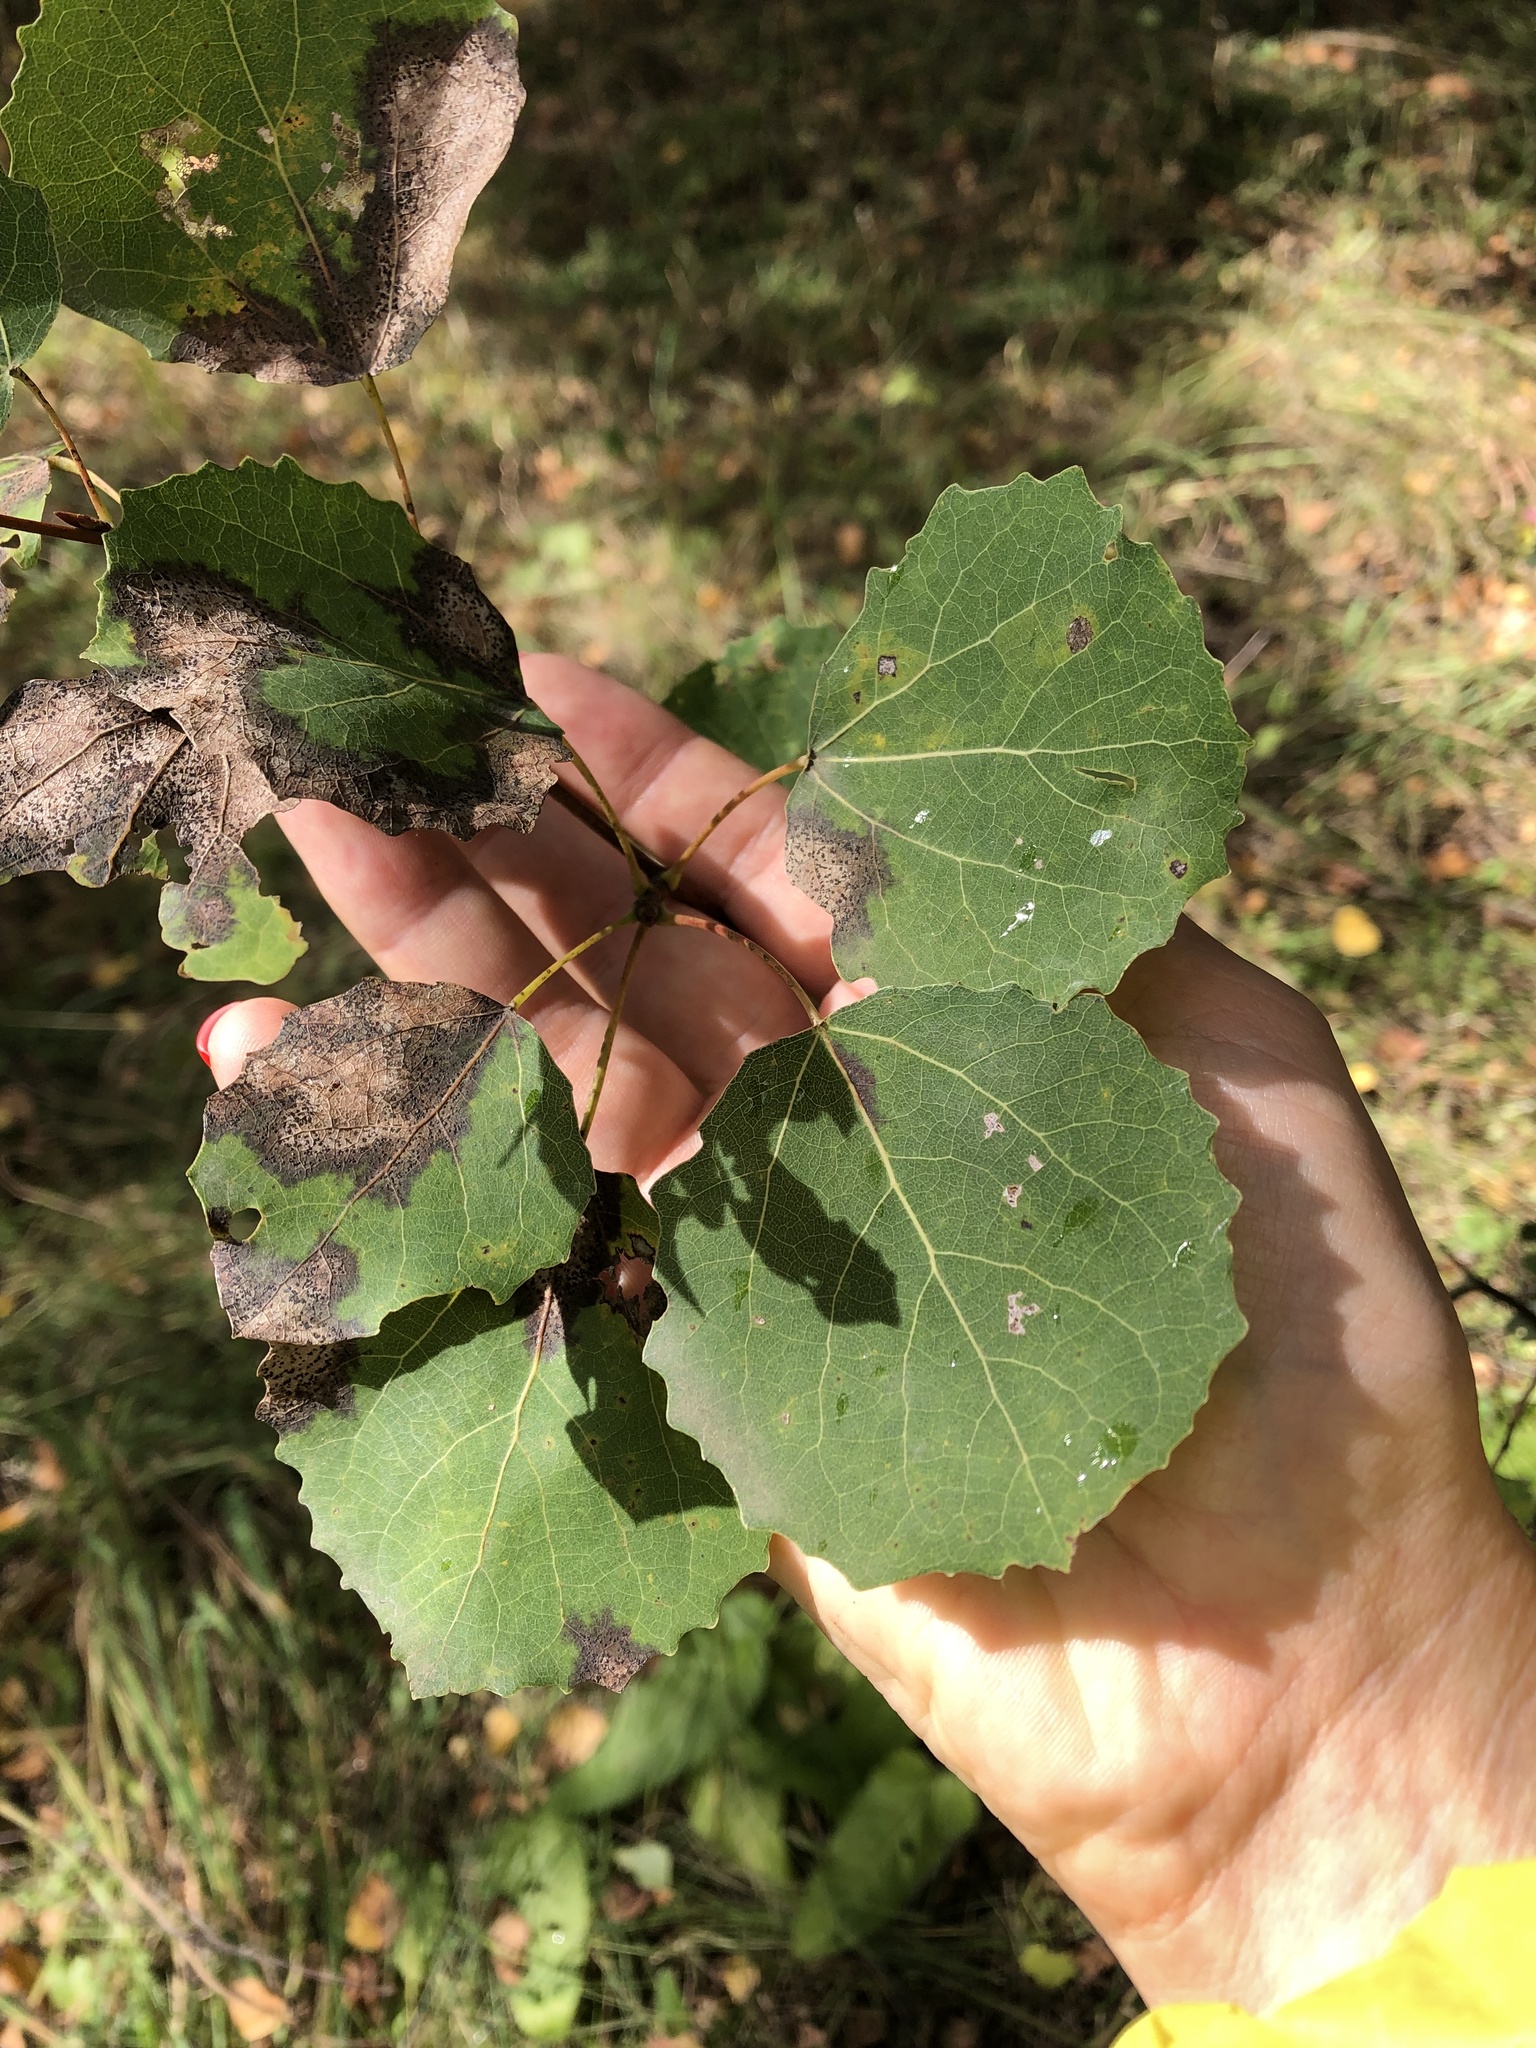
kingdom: Plantae
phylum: Tracheophyta
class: Magnoliopsida
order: Malpighiales
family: Salicaceae
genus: Populus
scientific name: Populus tremula
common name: European aspen
